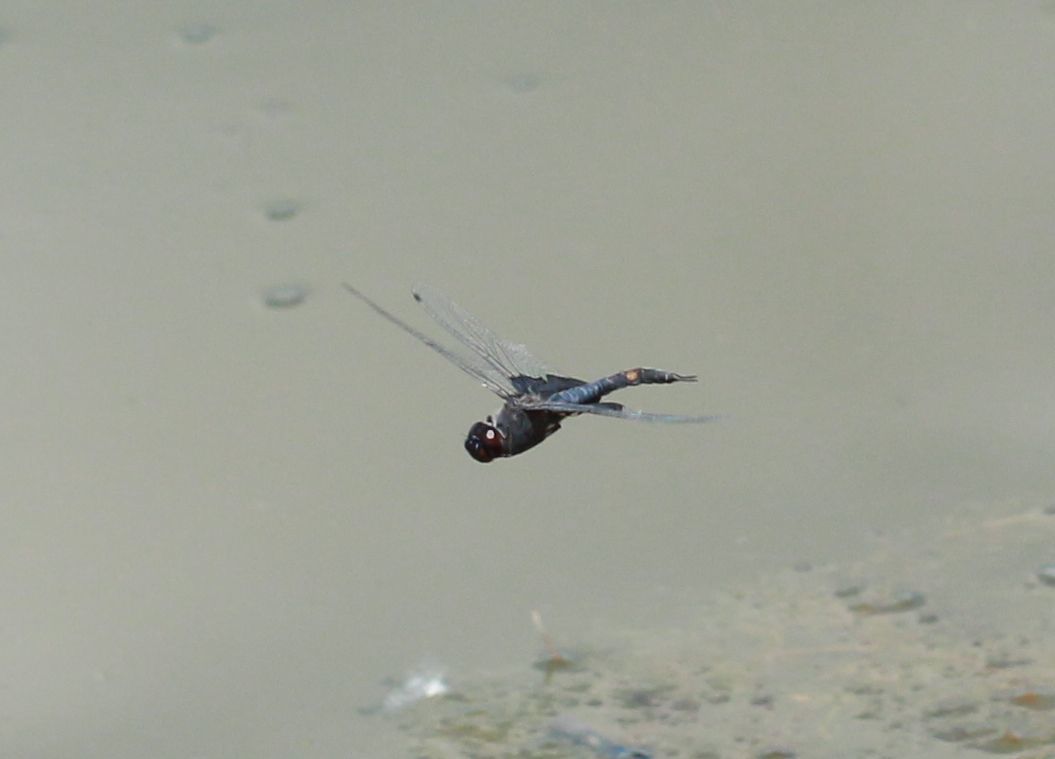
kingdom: Animalia
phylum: Arthropoda
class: Insecta
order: Odonata
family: Libellulidae
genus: Tramea
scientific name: Tramea lacerata
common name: Black saddlebags
